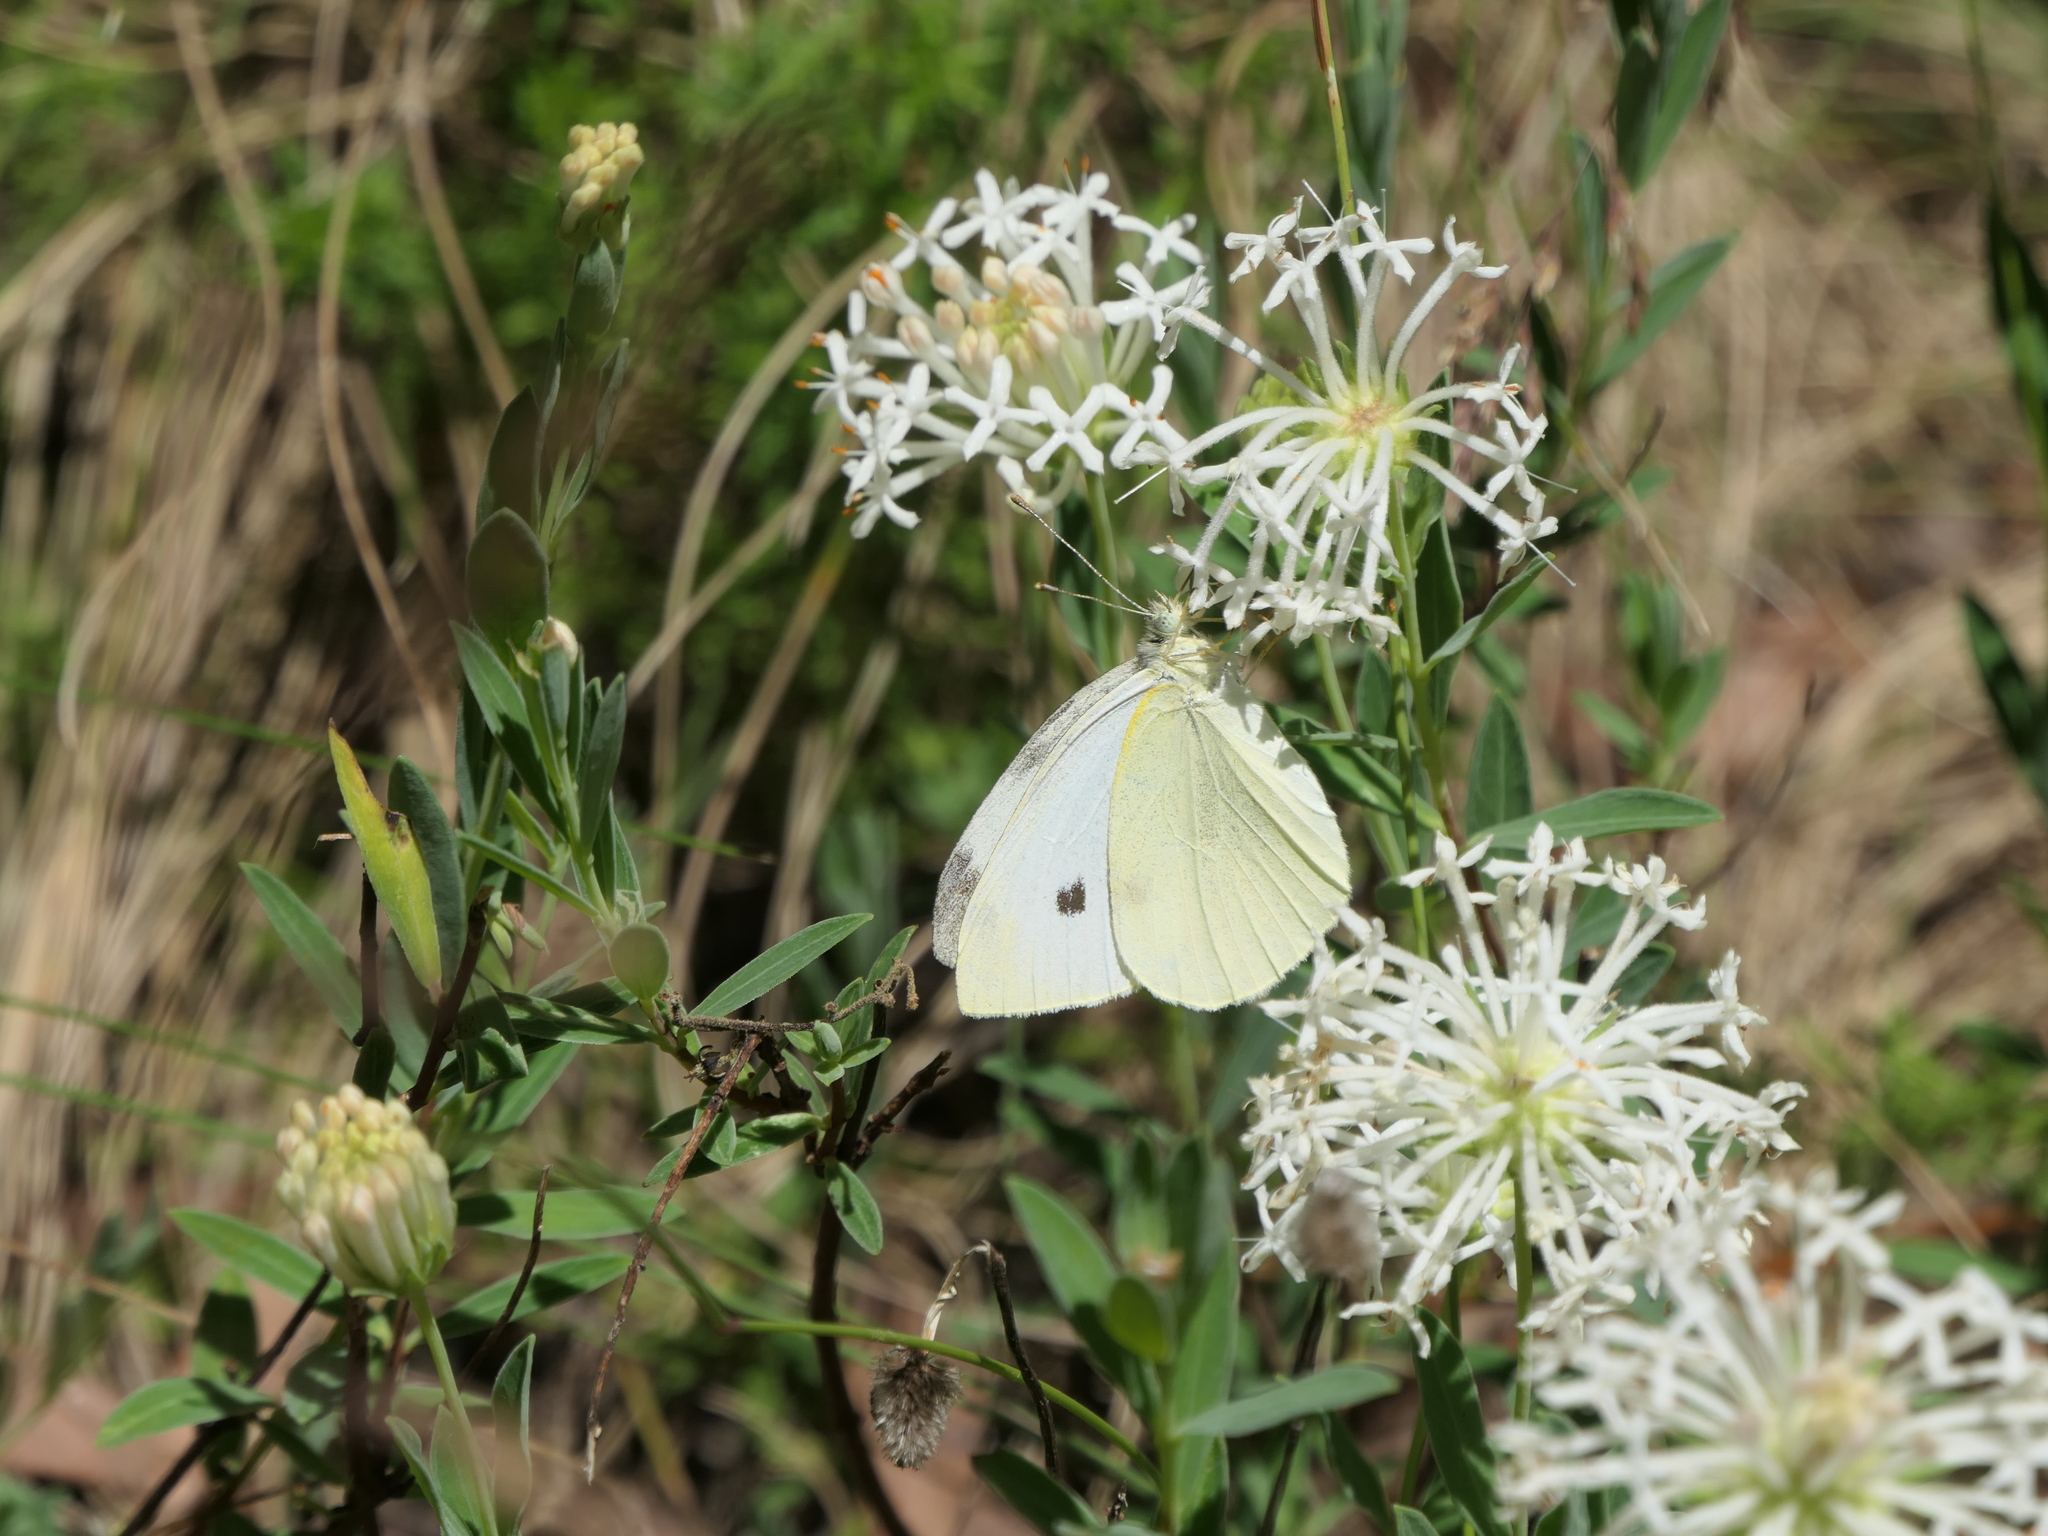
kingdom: Animalia
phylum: Arthropoda
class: Insecta
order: Lepidoptera
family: Pieridae
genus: Pieris
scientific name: Pieris rapae
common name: Small white
